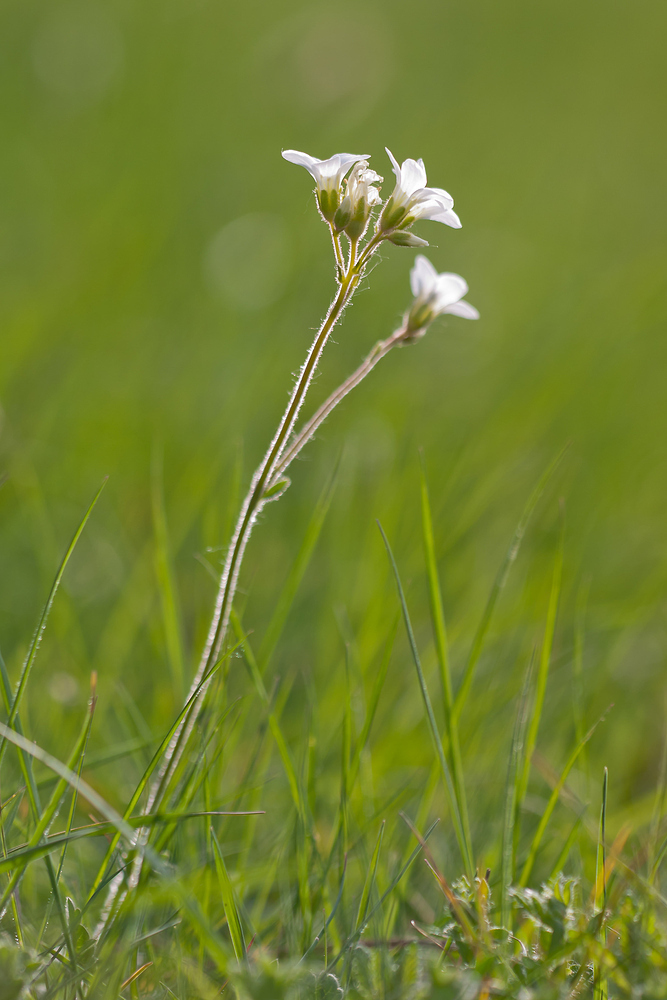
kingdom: Plantae
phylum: Tracheophyta
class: Magnoliopsida
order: Saxifragales
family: Saxifragaceae
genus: Saxifraga
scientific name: Saxifraga granulata
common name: Meadow saxifrage
